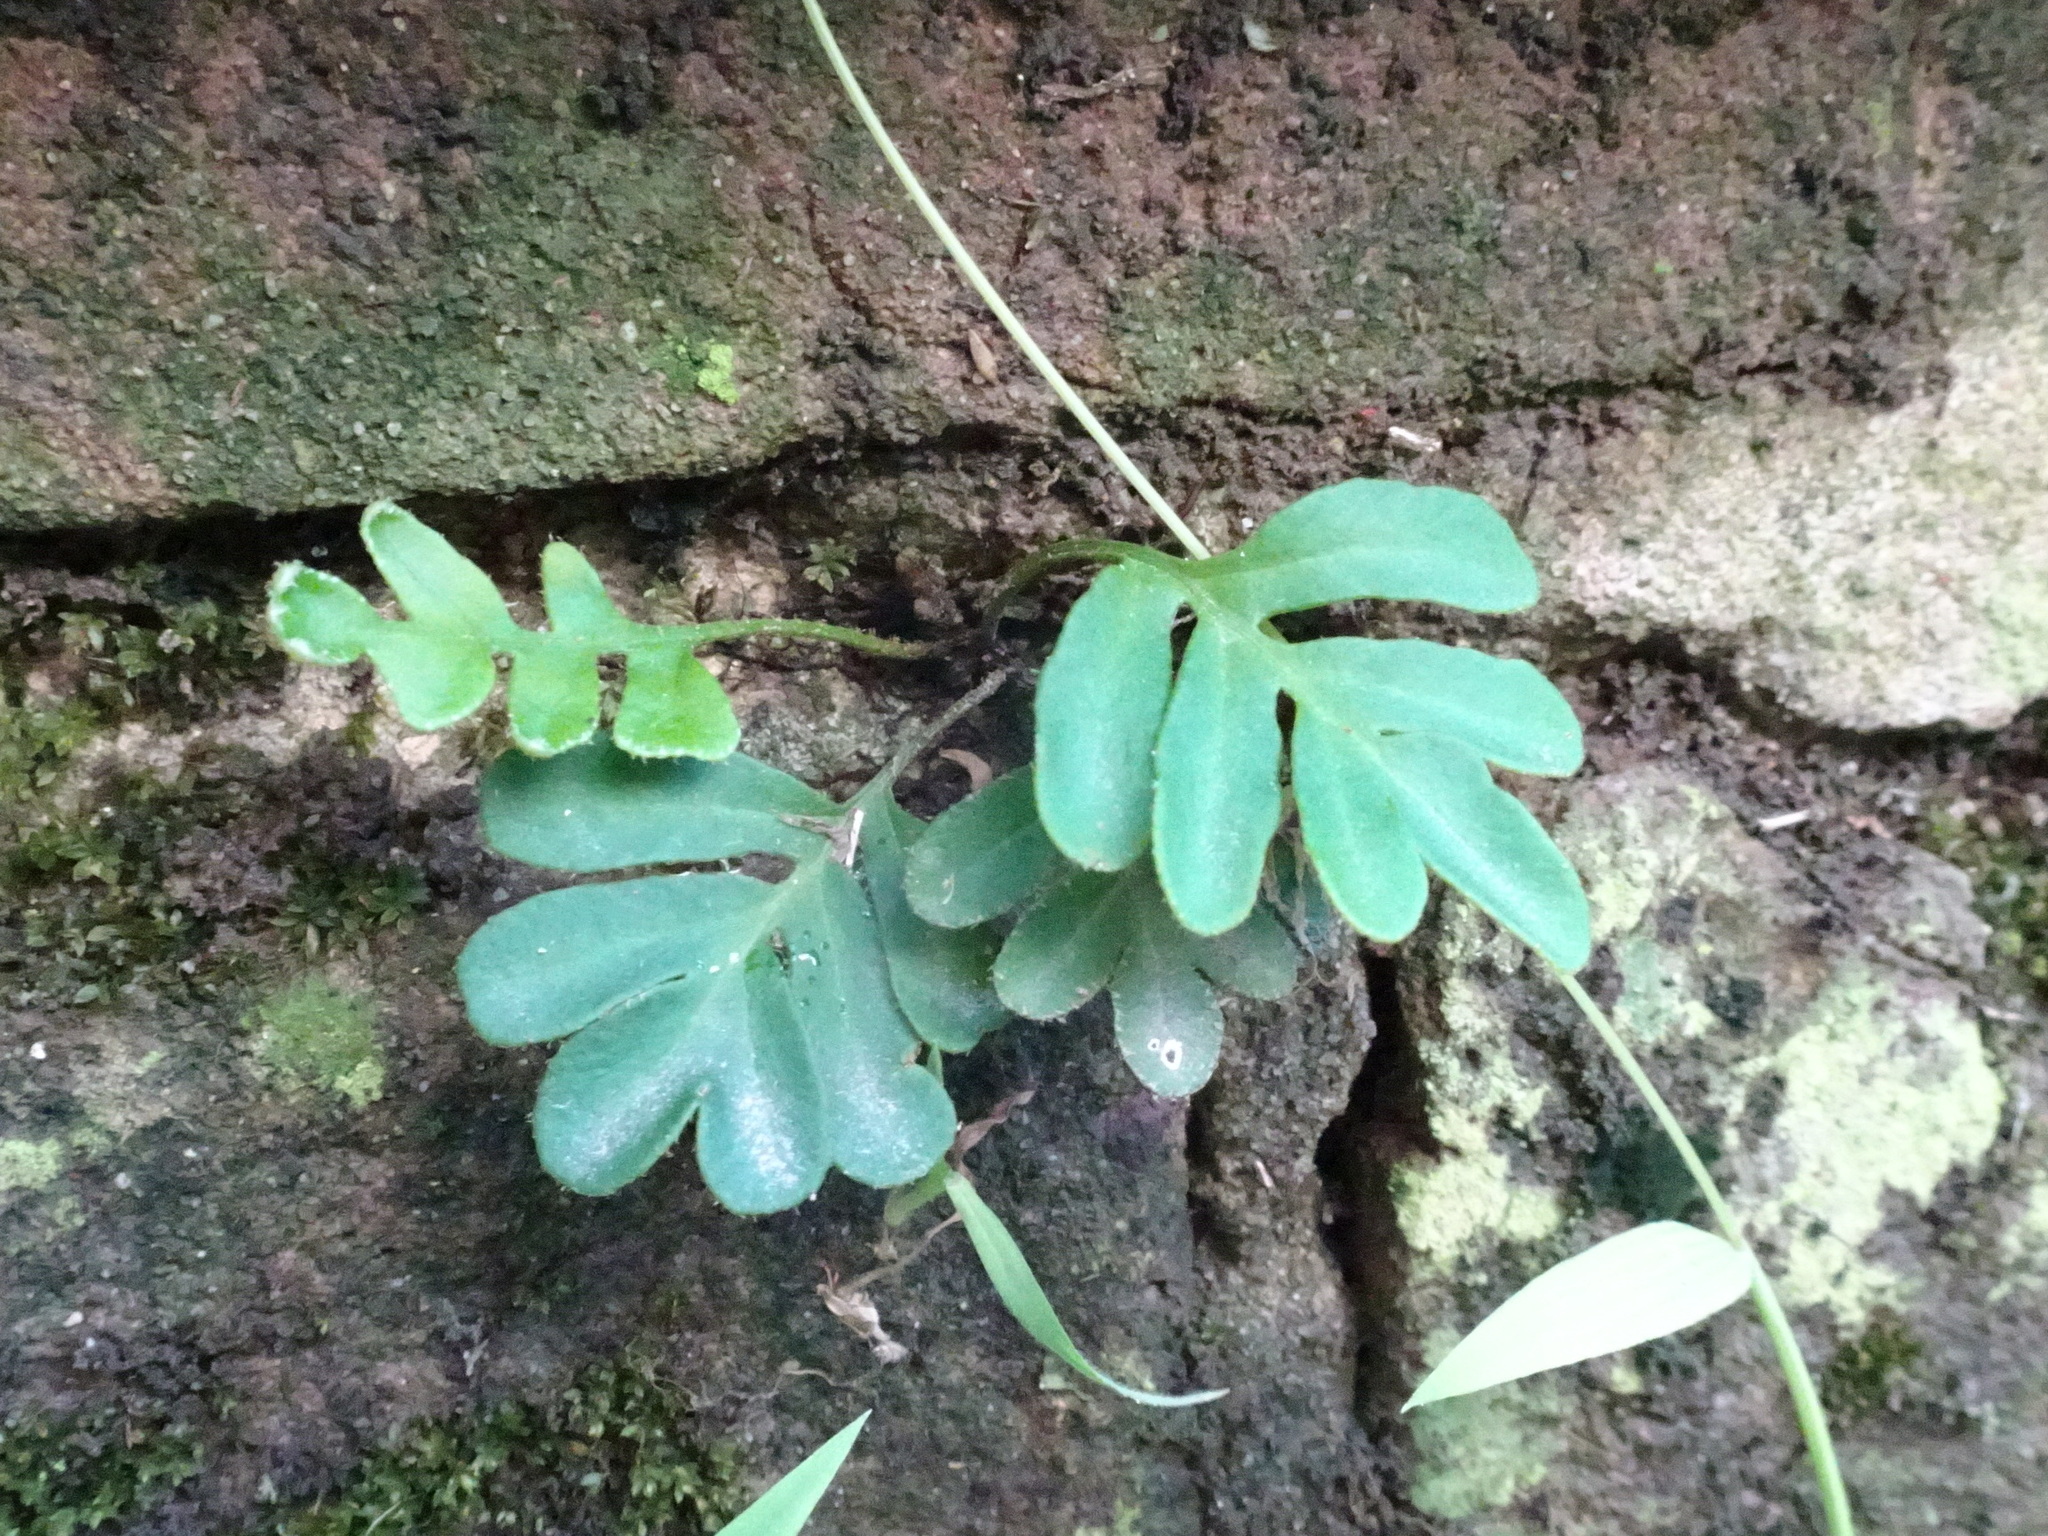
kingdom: Plantae
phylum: Tracheophyta
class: Polypodiopsida
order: Polypodiales
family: Polypodiaceae
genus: Pleopeltis
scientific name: Pleopeltis michauxiana
